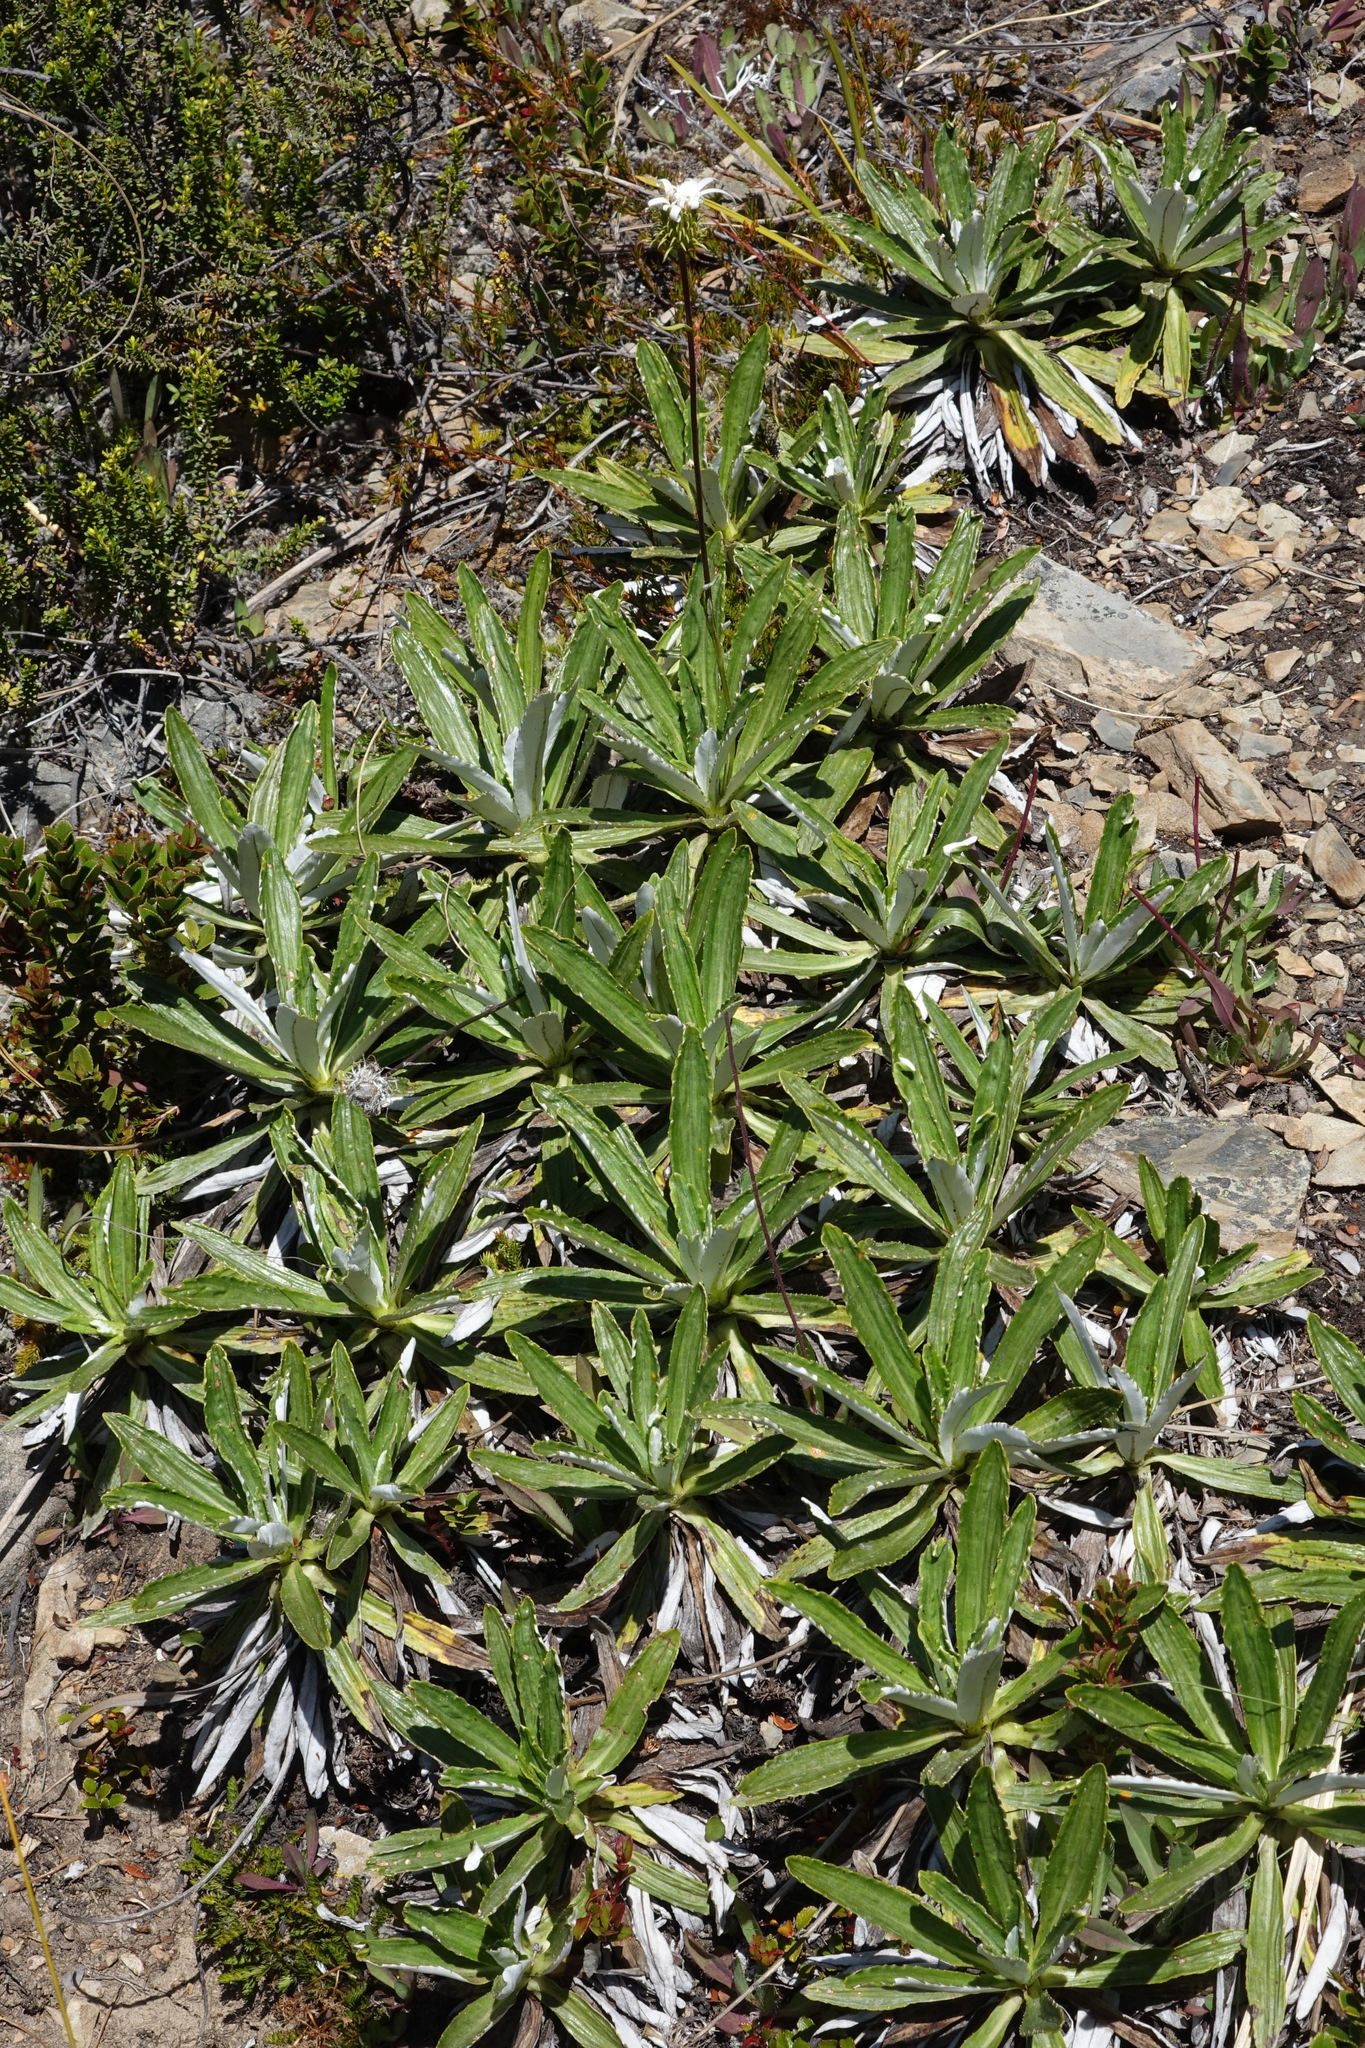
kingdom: Plantae
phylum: Tracheophyta
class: Magnoliopsida
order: Asterales
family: Asteraceae
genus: Celmisia
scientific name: Celmisia densiflora
